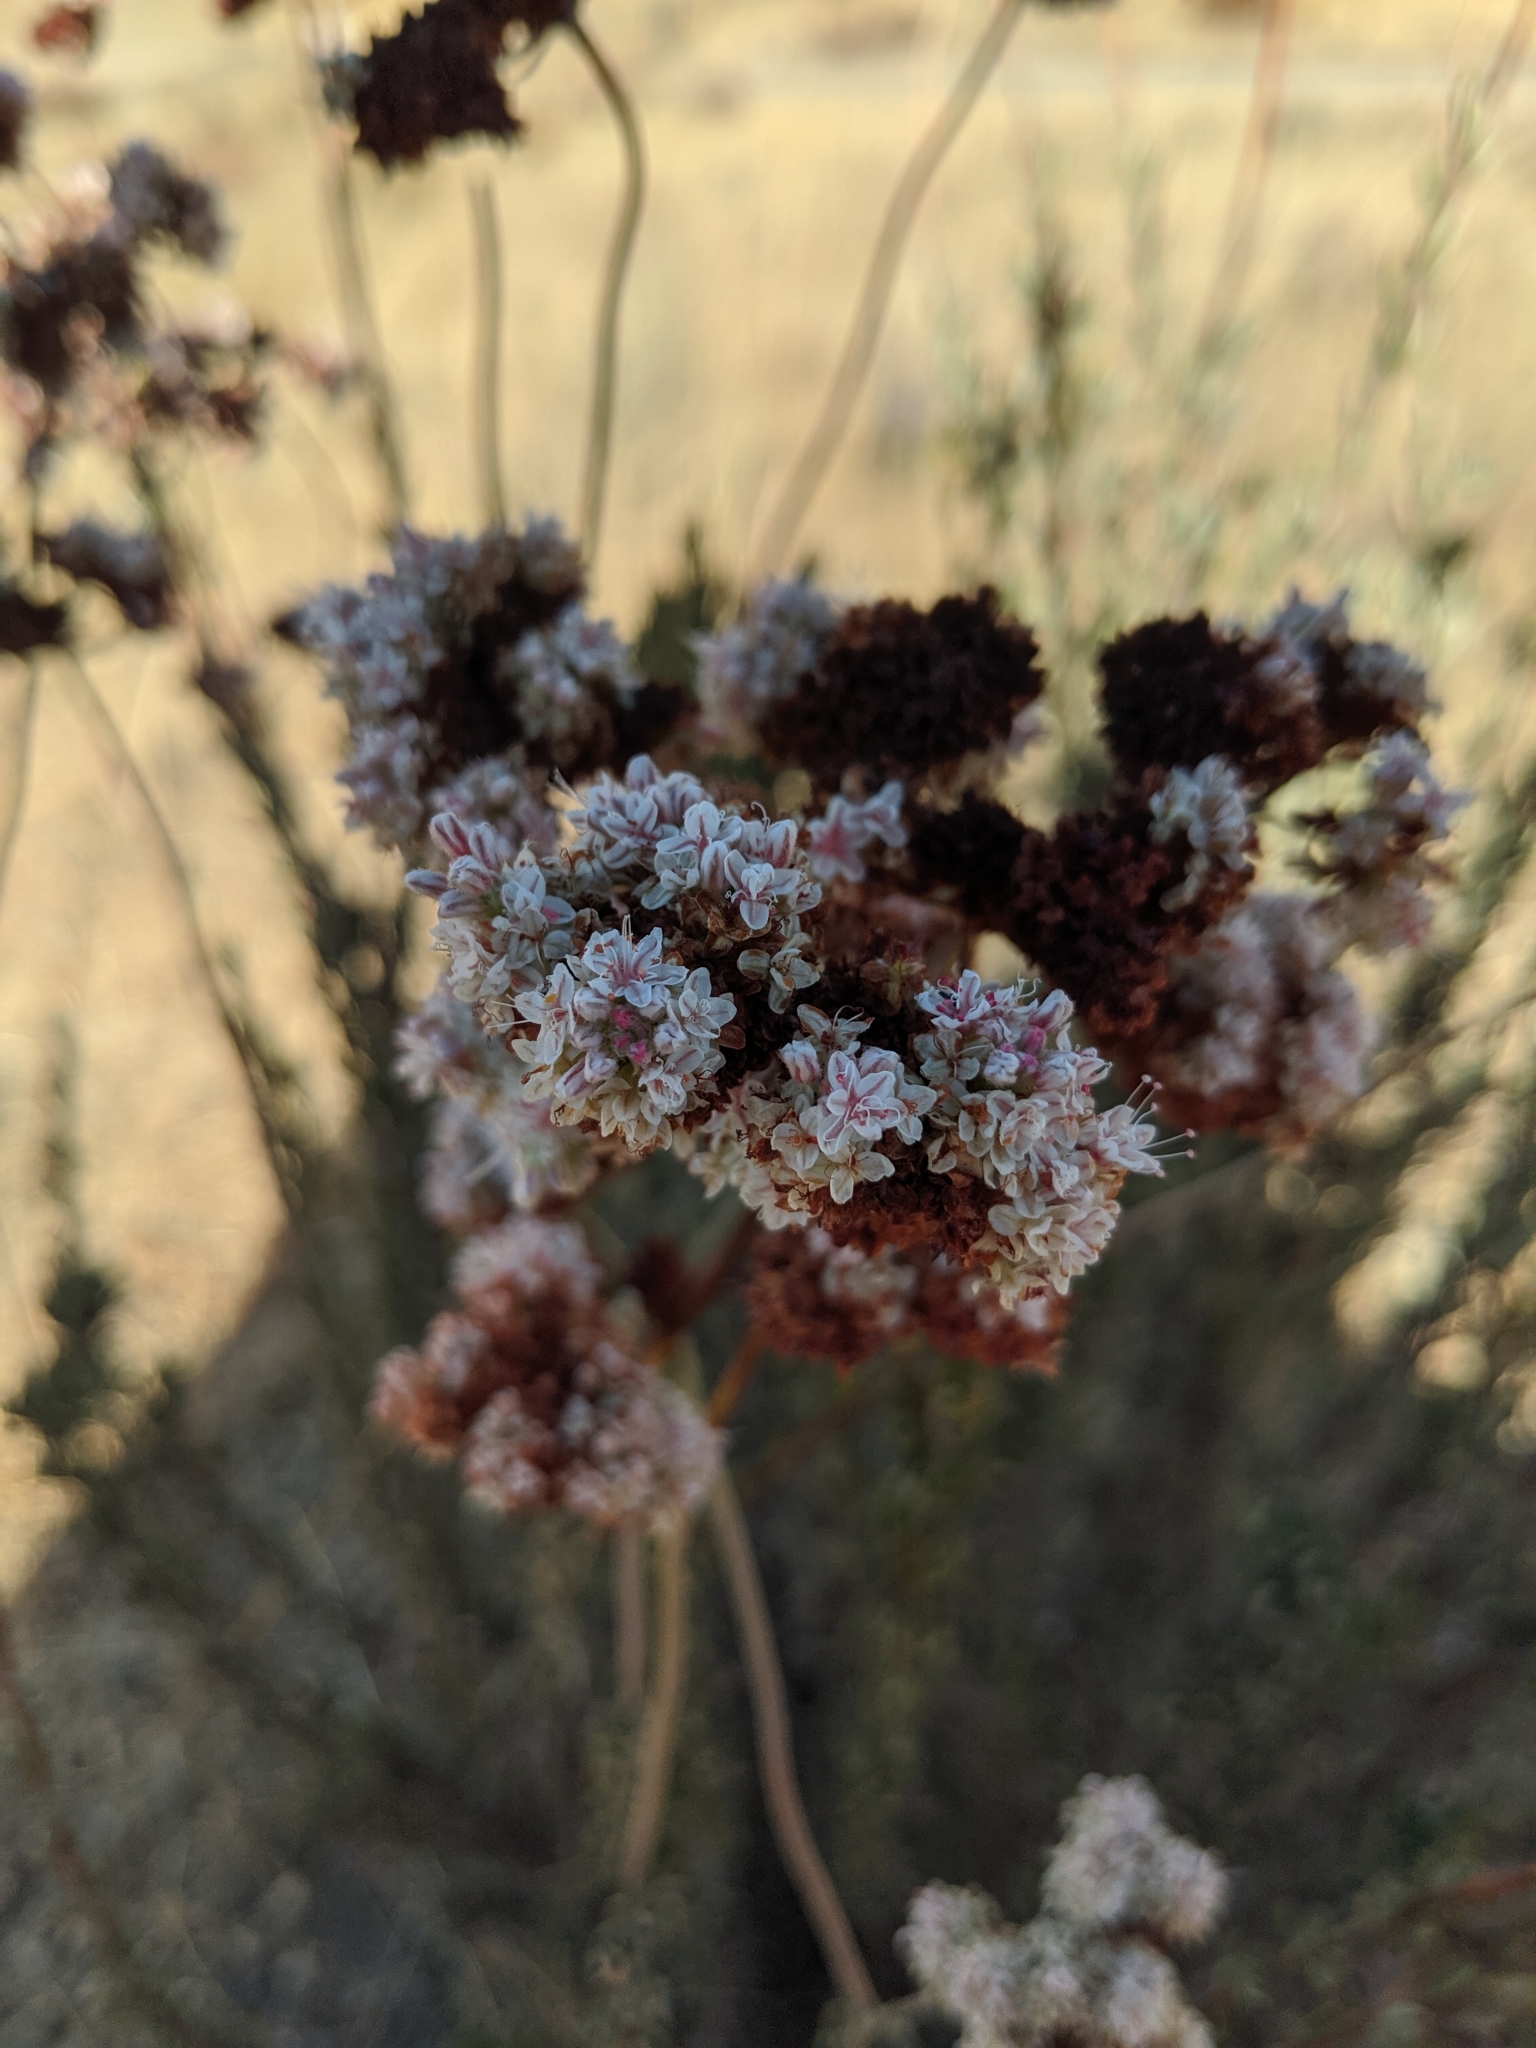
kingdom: Plantae
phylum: Tracheophyta
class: Magnoliopsida
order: Caryophyllales
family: Polygonaceae
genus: Eriogonum
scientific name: Eriogonum fasciculatum
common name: California wild buckwheat
